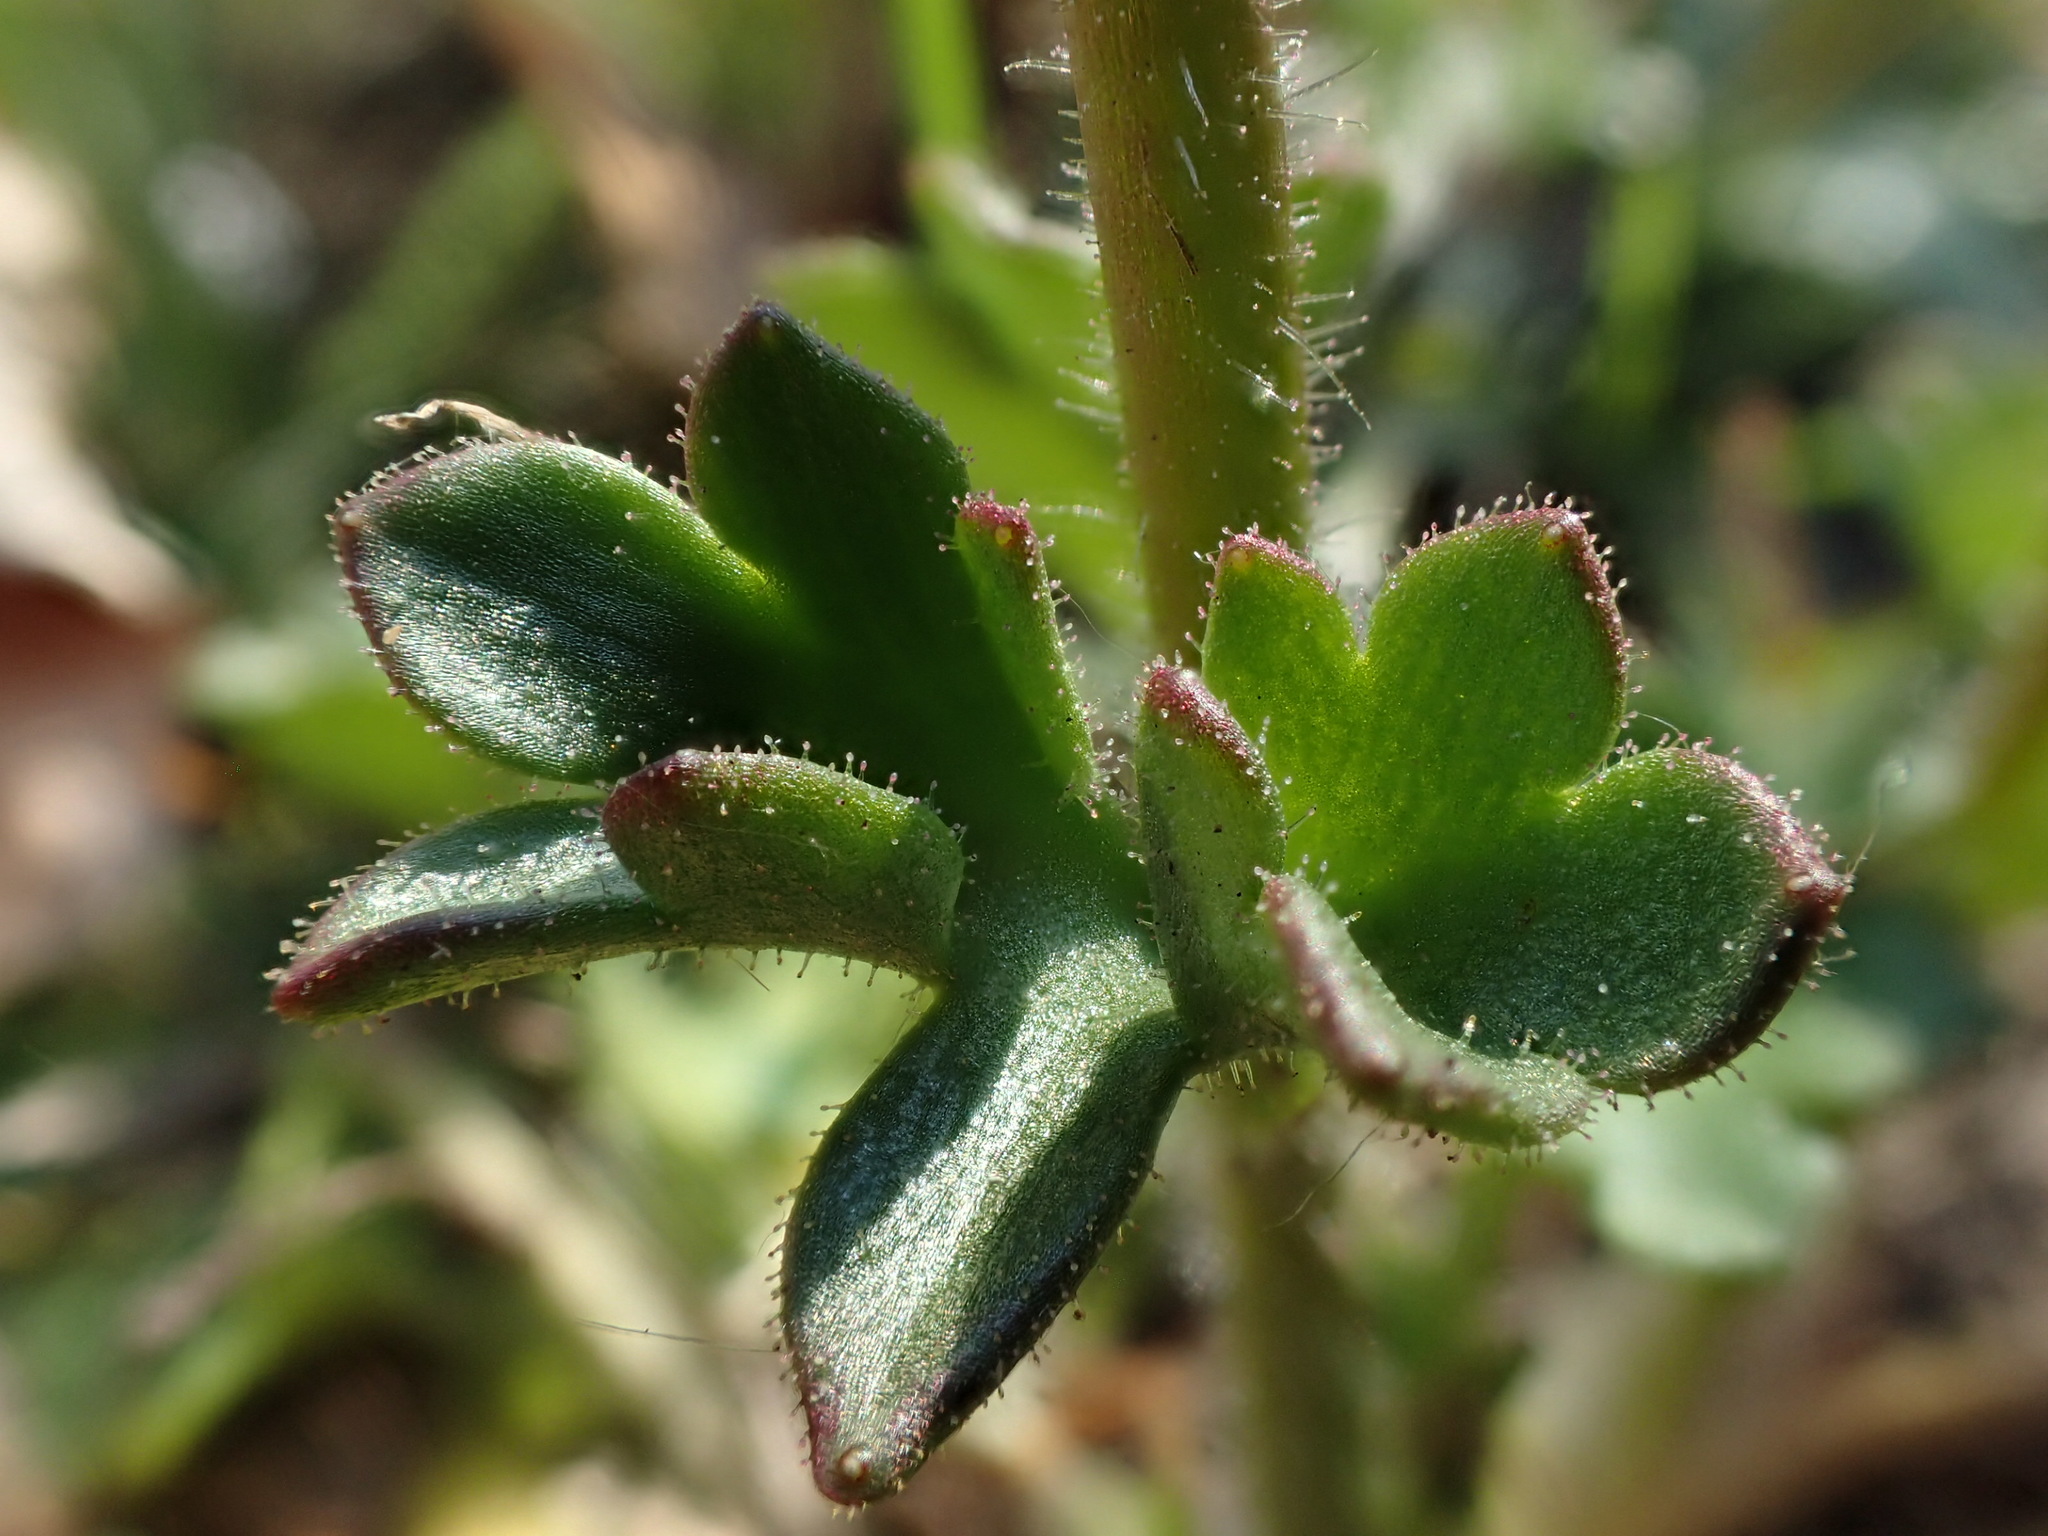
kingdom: Plantae
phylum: Tracheophyta
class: Magnoliopsida
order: Saxifragales
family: Saxifragaceae
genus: Saxifraga
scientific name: Saxifraga granulata
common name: Meadow saxifrage
